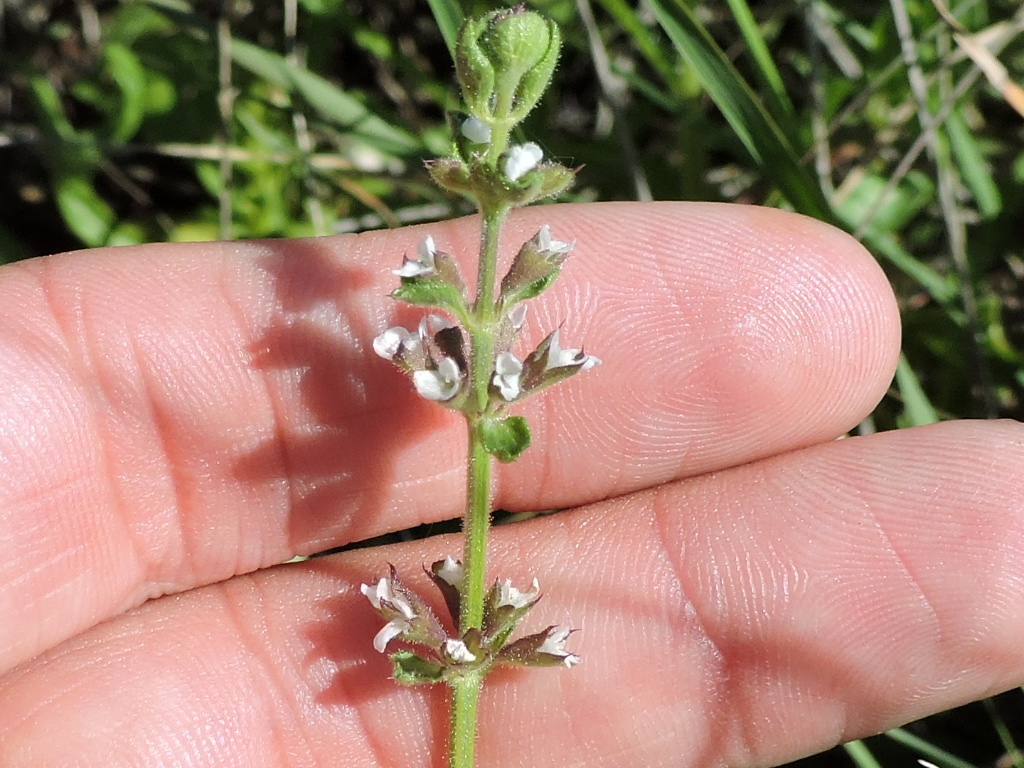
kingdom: Plantae
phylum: Tracheophyta
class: Magnoliopsida
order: Lamiales
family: Lamiaceae
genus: Stachys
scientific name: Stachys
